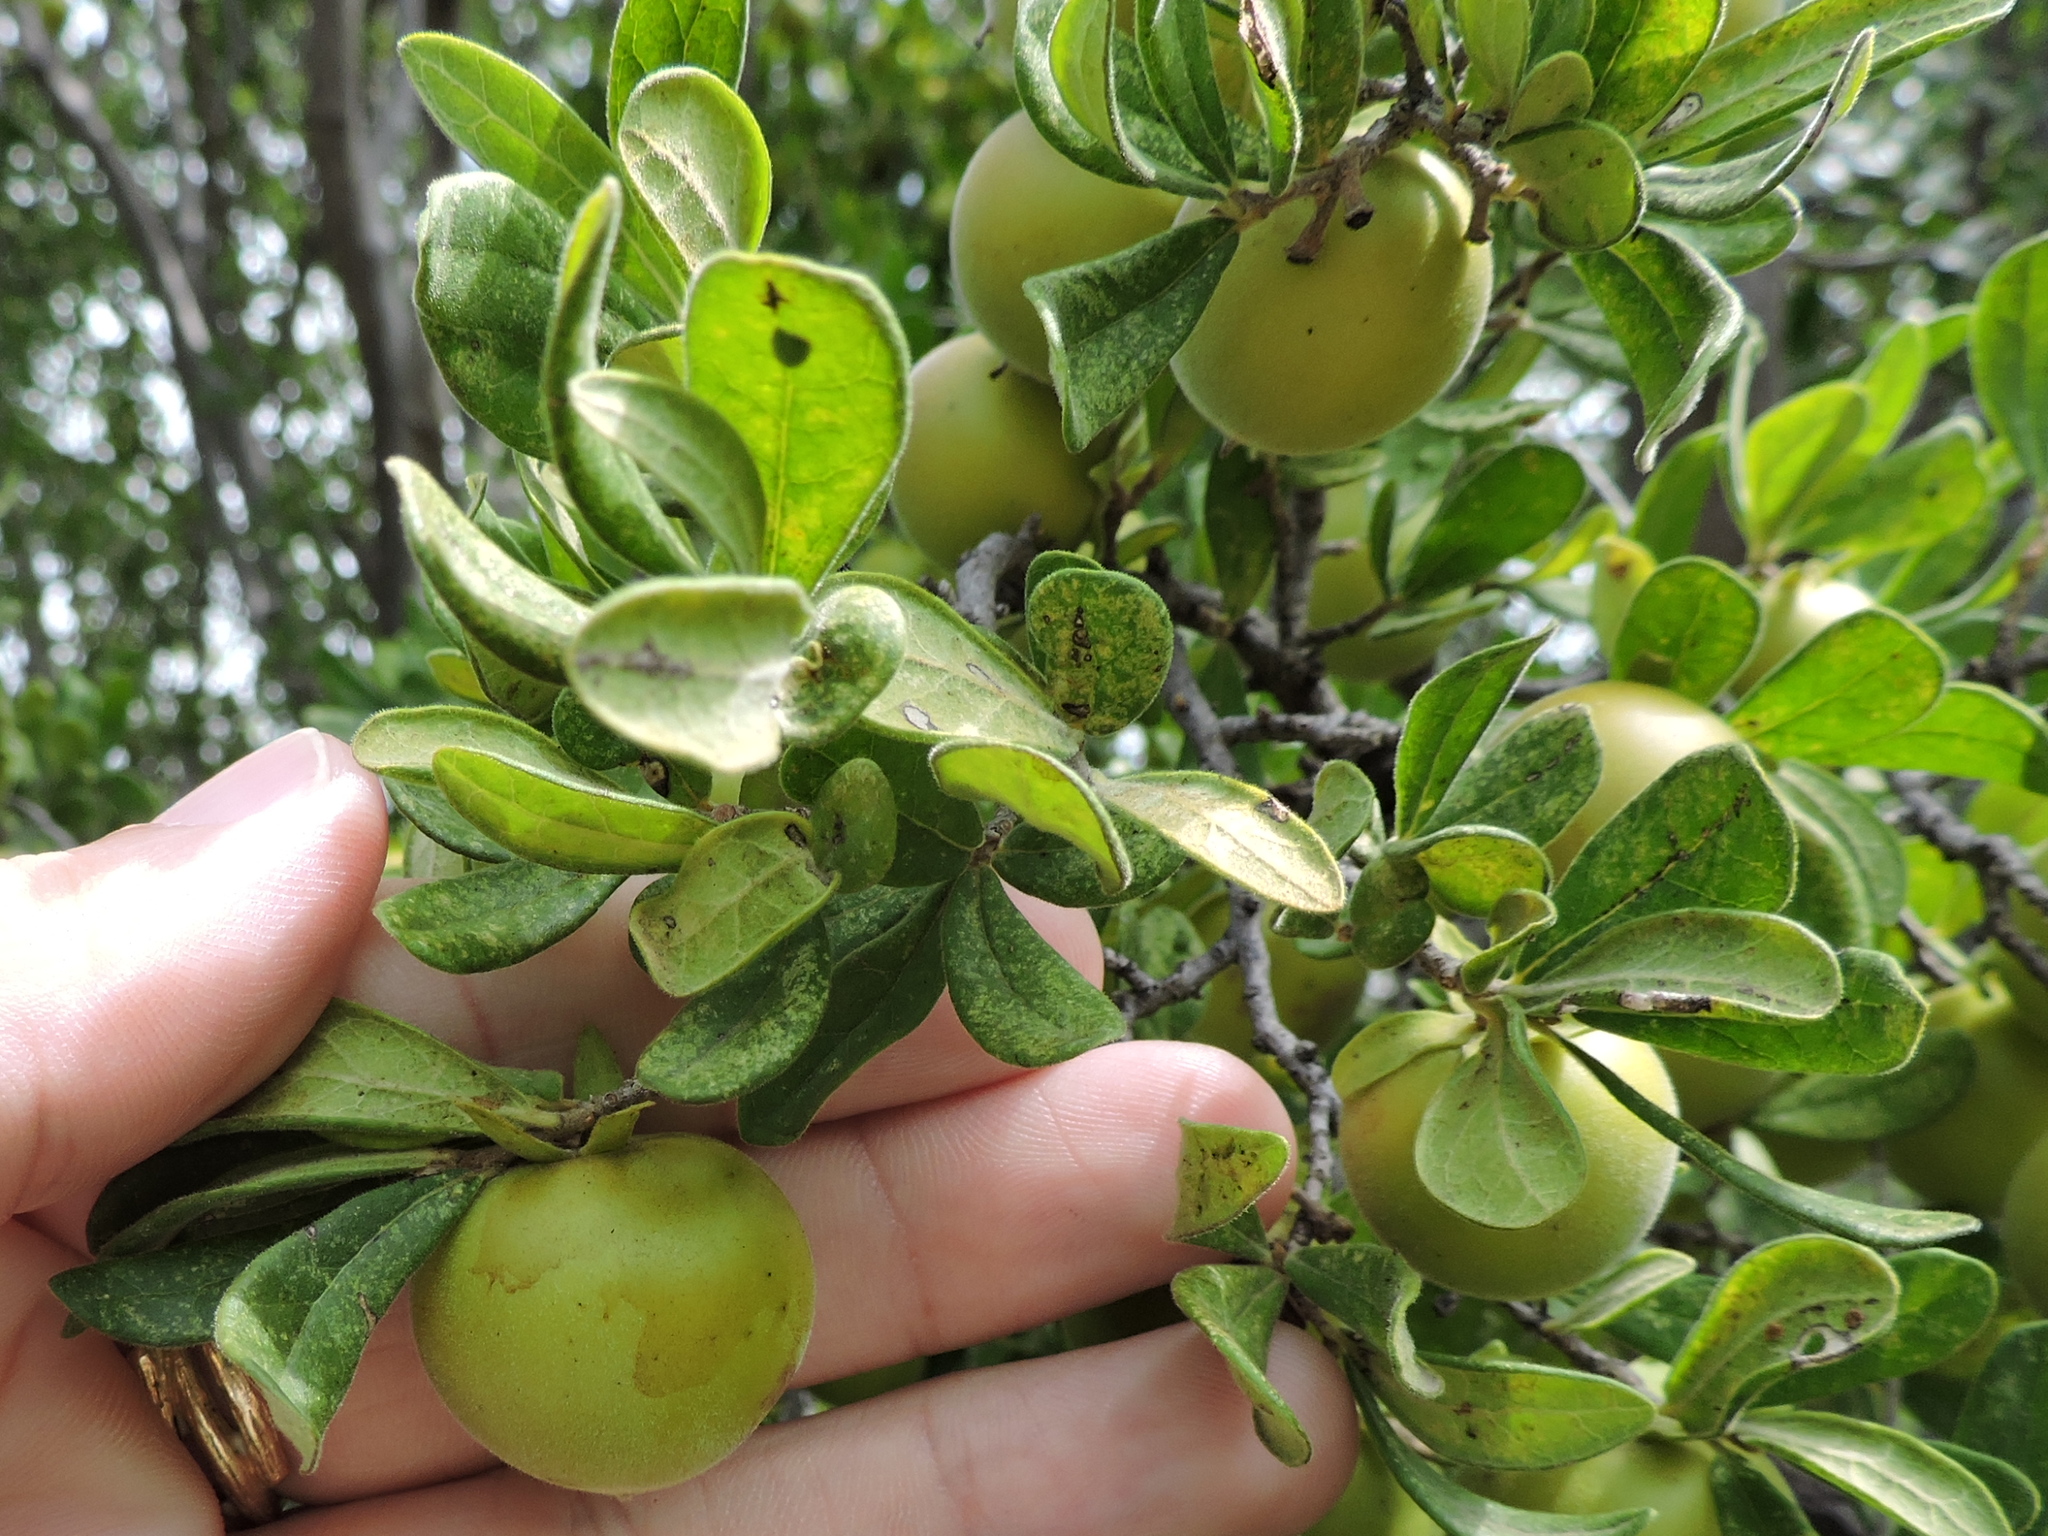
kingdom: Plantae
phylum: Tracheophyta
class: Magnoliopsida
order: Ericales
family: Ebenaceae
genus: Diospyros
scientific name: Diospyros texana
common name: Texas persimmon
